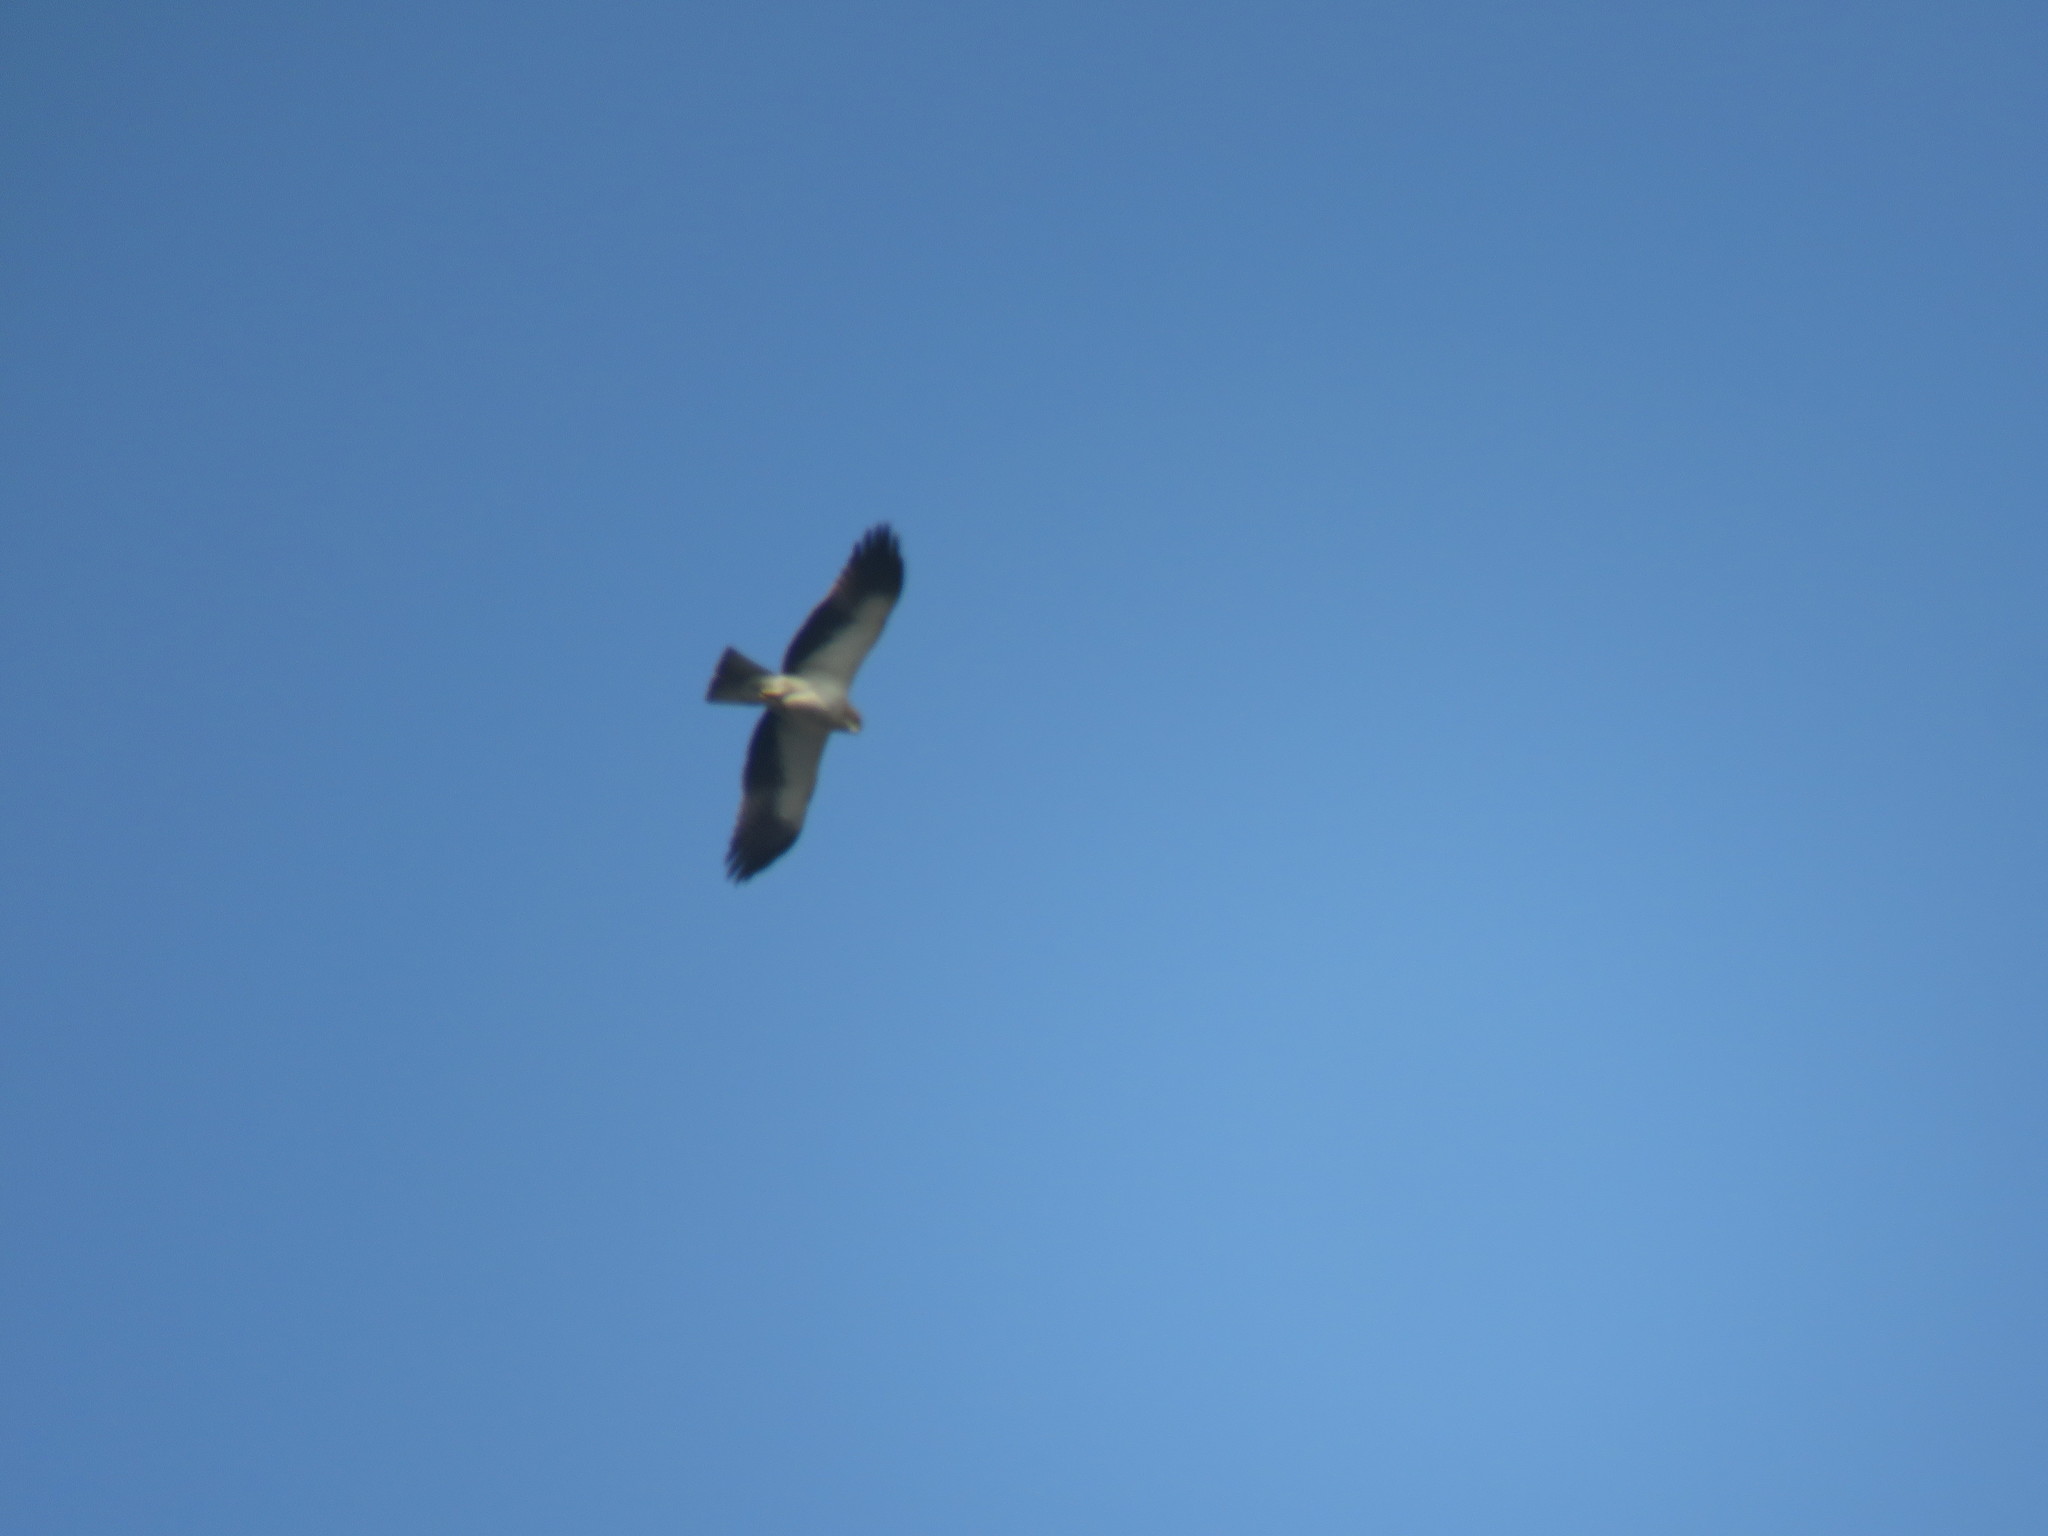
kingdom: Animalia
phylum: Chordata
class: Aves
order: Accipitriformes
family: Accipitridae
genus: Hieraaetus
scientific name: Hieraaetus pennatus
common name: Booted eagle
